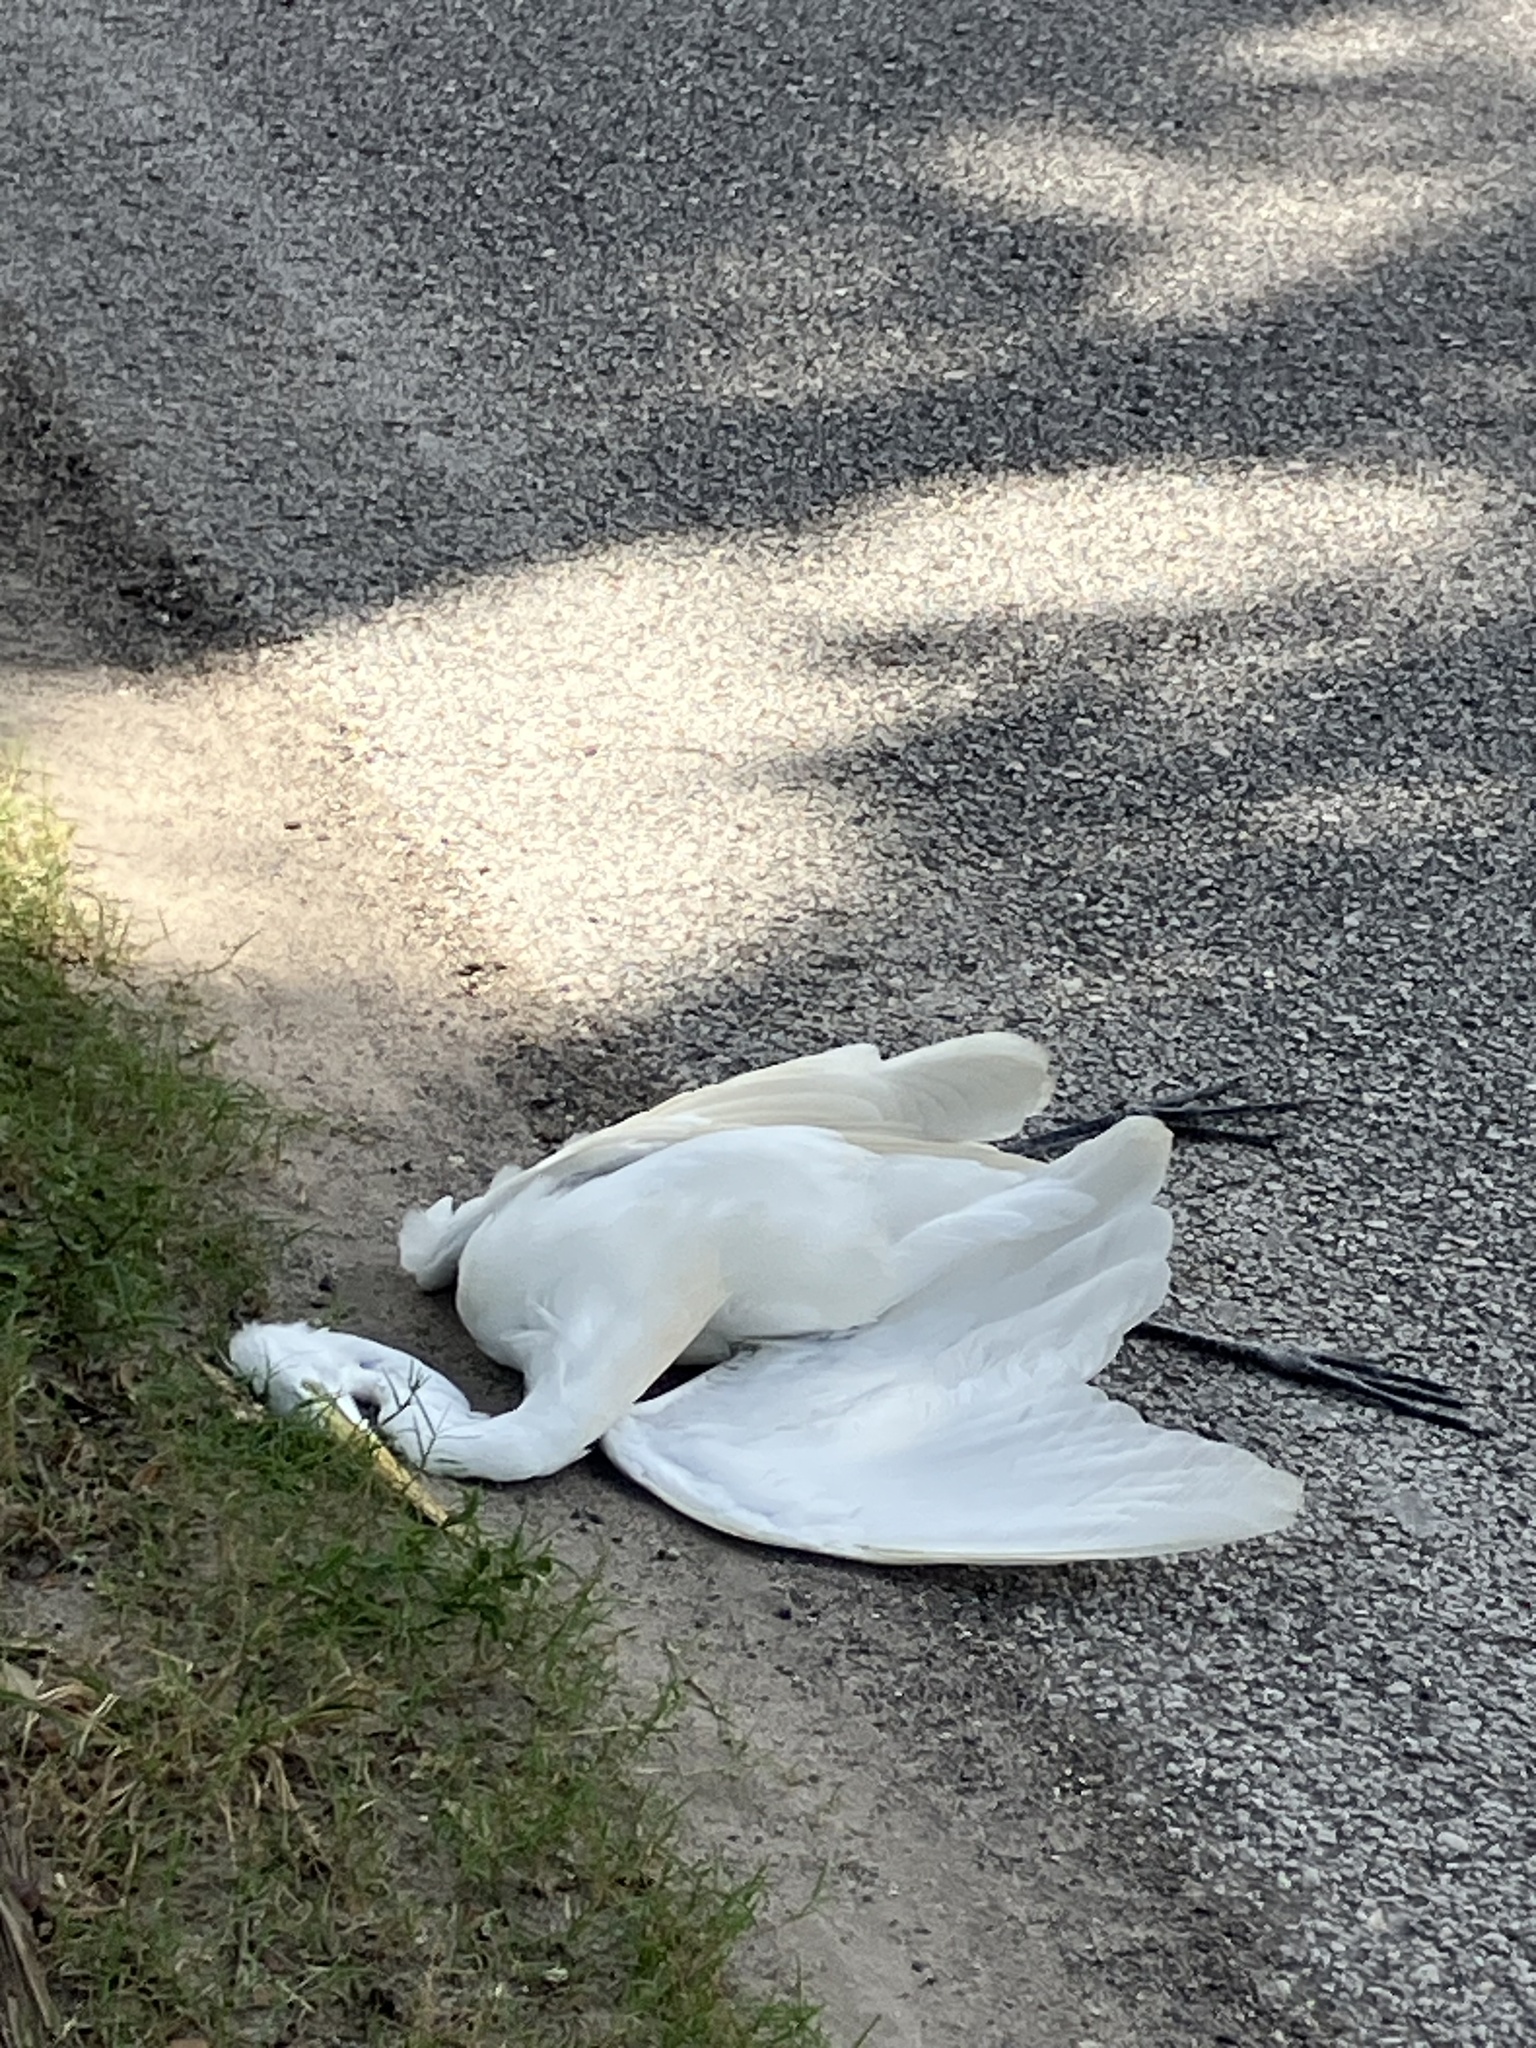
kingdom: Animalia
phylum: Chordata
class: Aves
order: Pelecaniformes
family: Ardeidae
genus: Ardea
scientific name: Ardea alba
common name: Great egret
